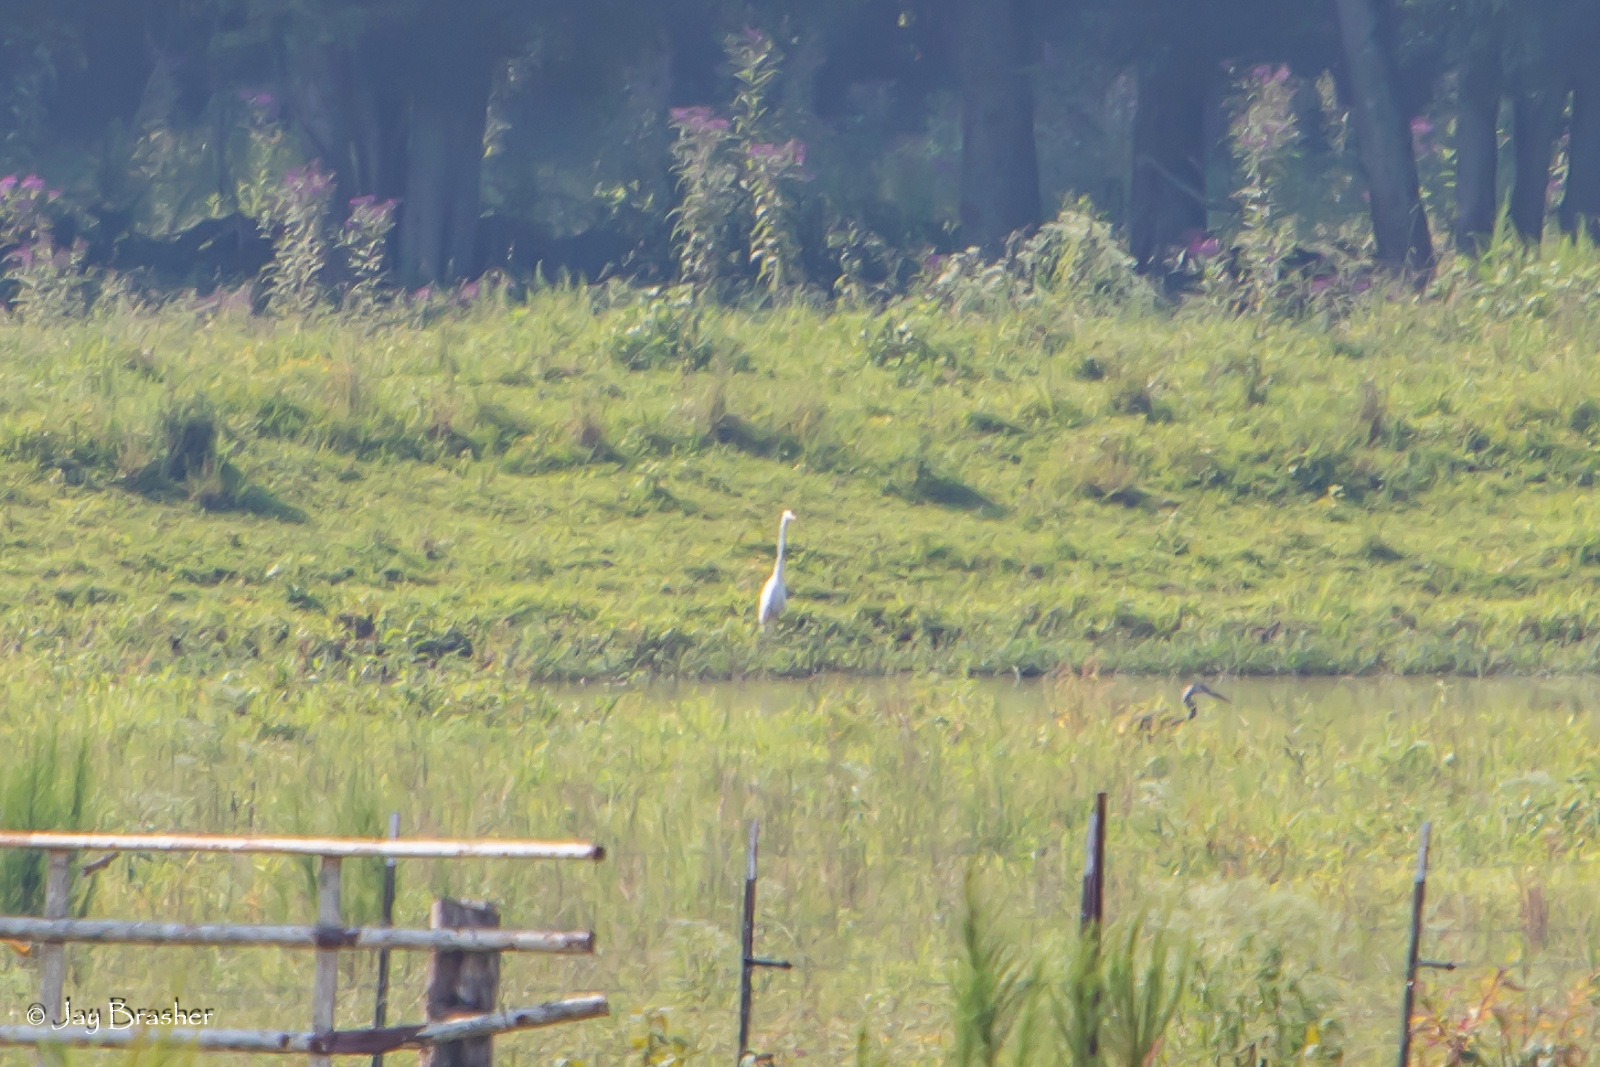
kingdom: Animalia
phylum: Chordata
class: Aves
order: Pelecaniformes
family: Ardeidae
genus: Ardea
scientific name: Ardea alba
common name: Great egret
